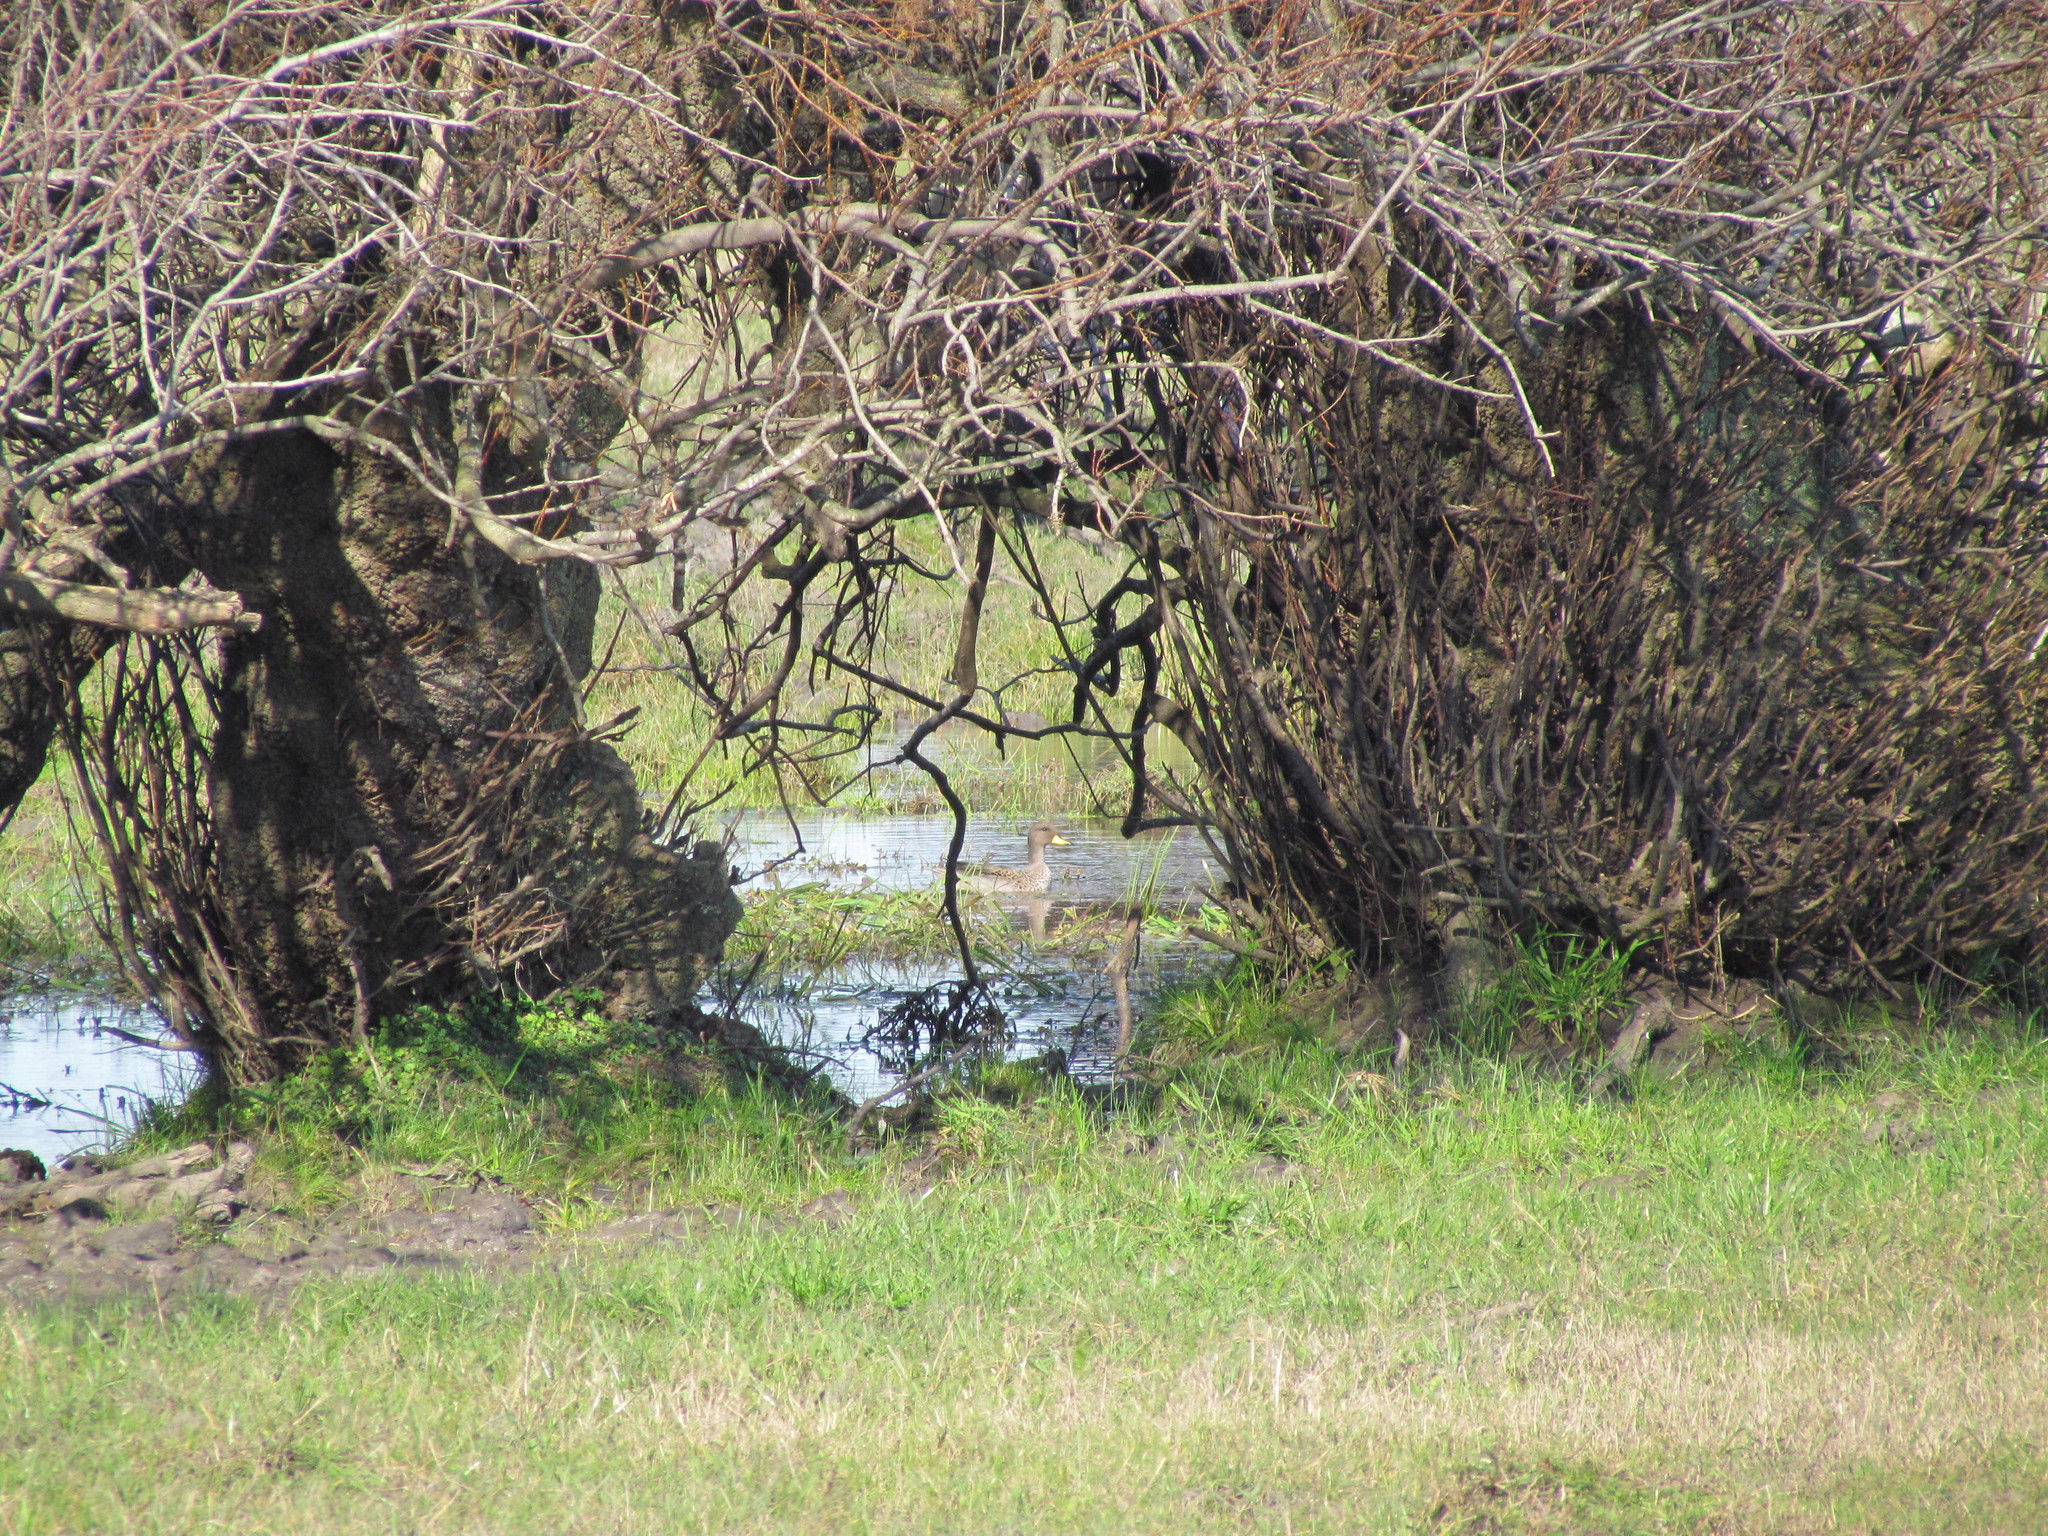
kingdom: Animalia
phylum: Chordata
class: Aves
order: Anseriformes
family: Anatidae
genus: Anas
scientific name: Anas flavirostris
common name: Yellow-billed teal
